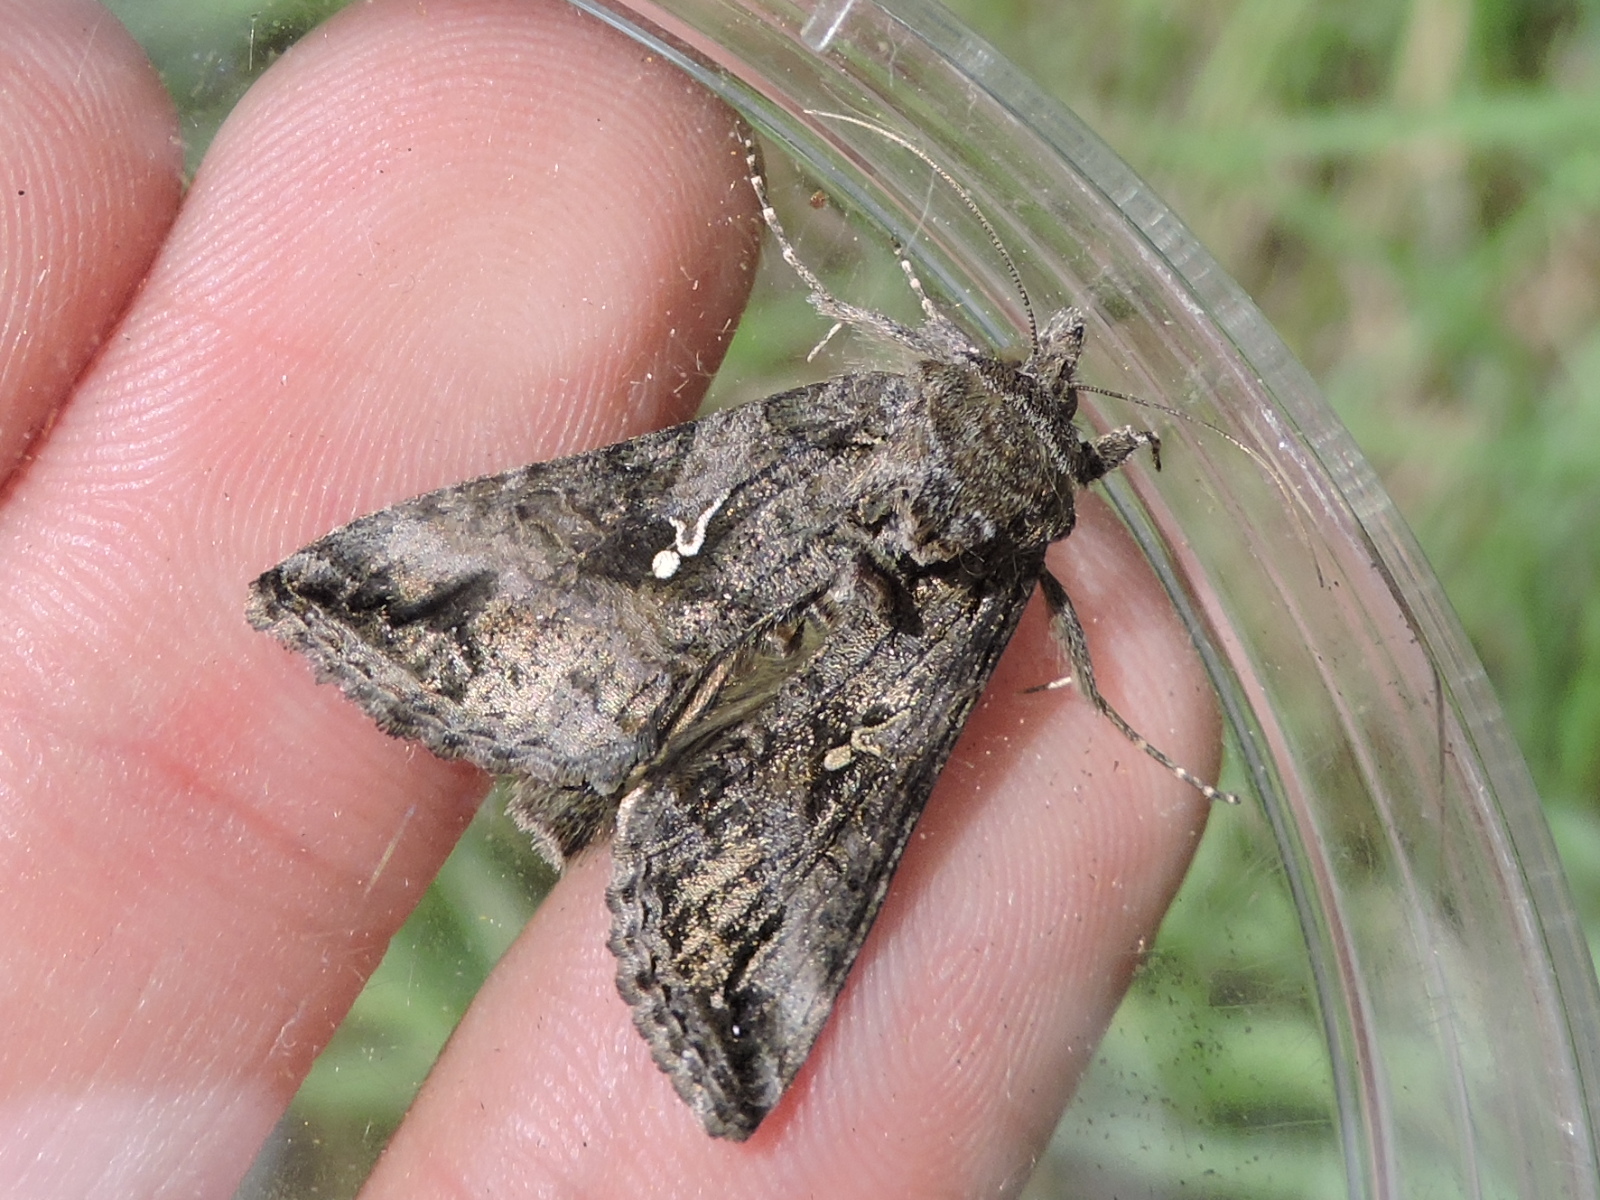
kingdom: Animalia
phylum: Arthropoda
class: Insecta
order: Lepidoptera
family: Noctuidae
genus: Rachiplusia
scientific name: Rachiplusia ou
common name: Gray looper moth
